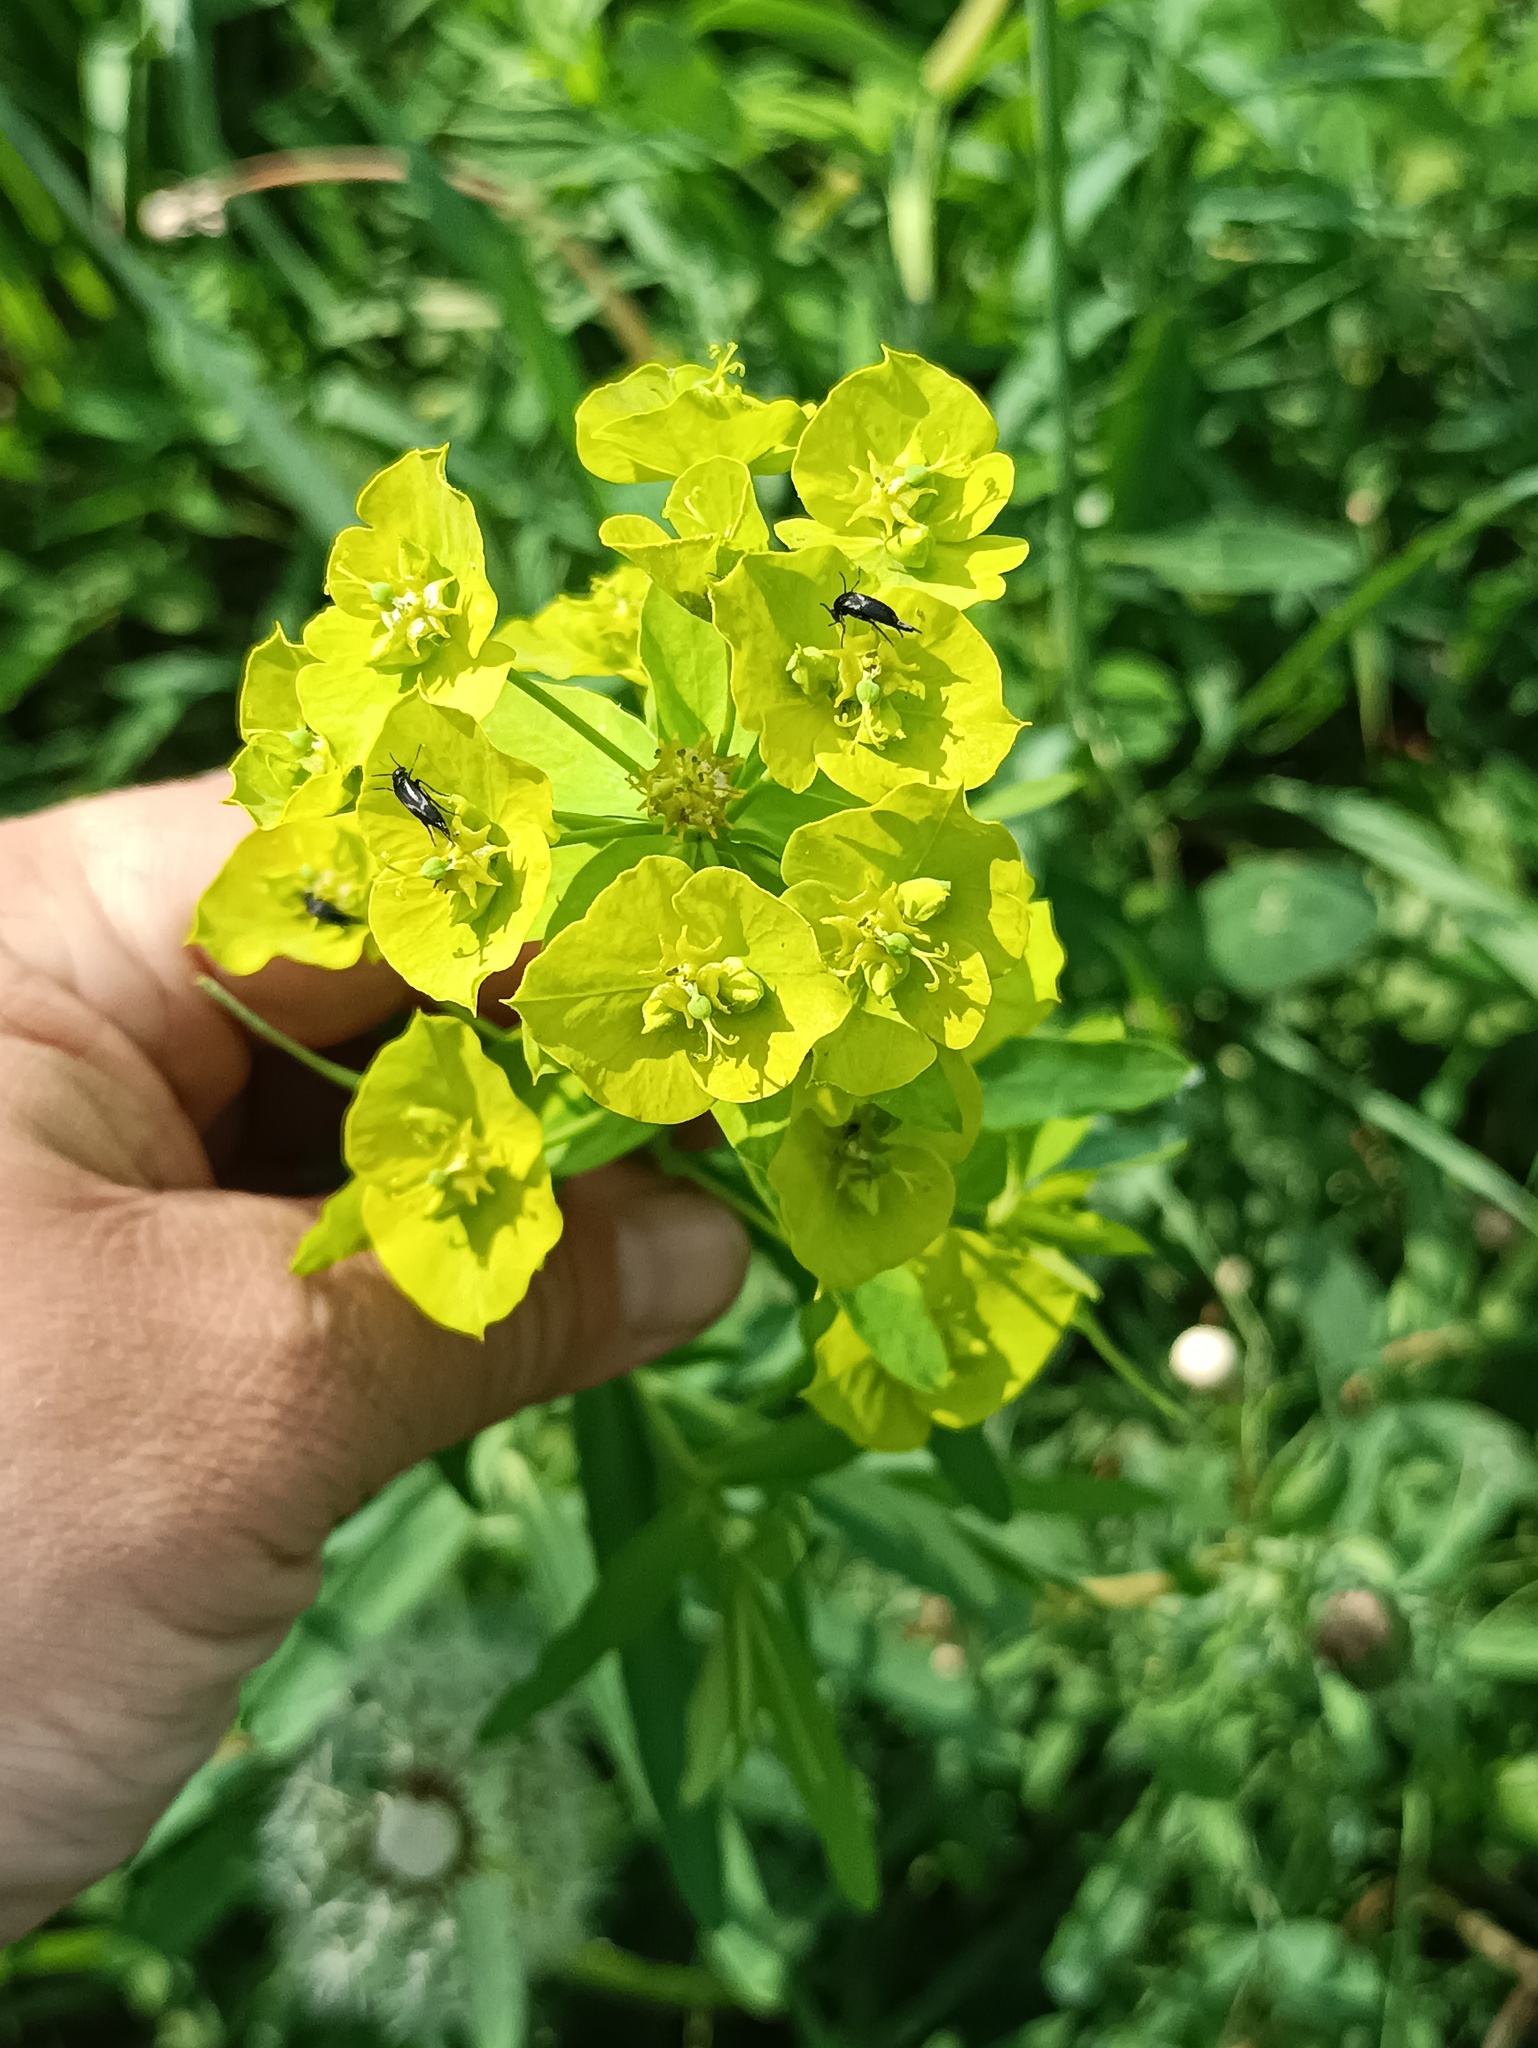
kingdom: Plantae
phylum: Tracheophyta
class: Magnoliopsida
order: Malpighiales
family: Euphorbiaceae
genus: Euphorbia
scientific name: Euphorbia virgata
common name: Leafy spurge
